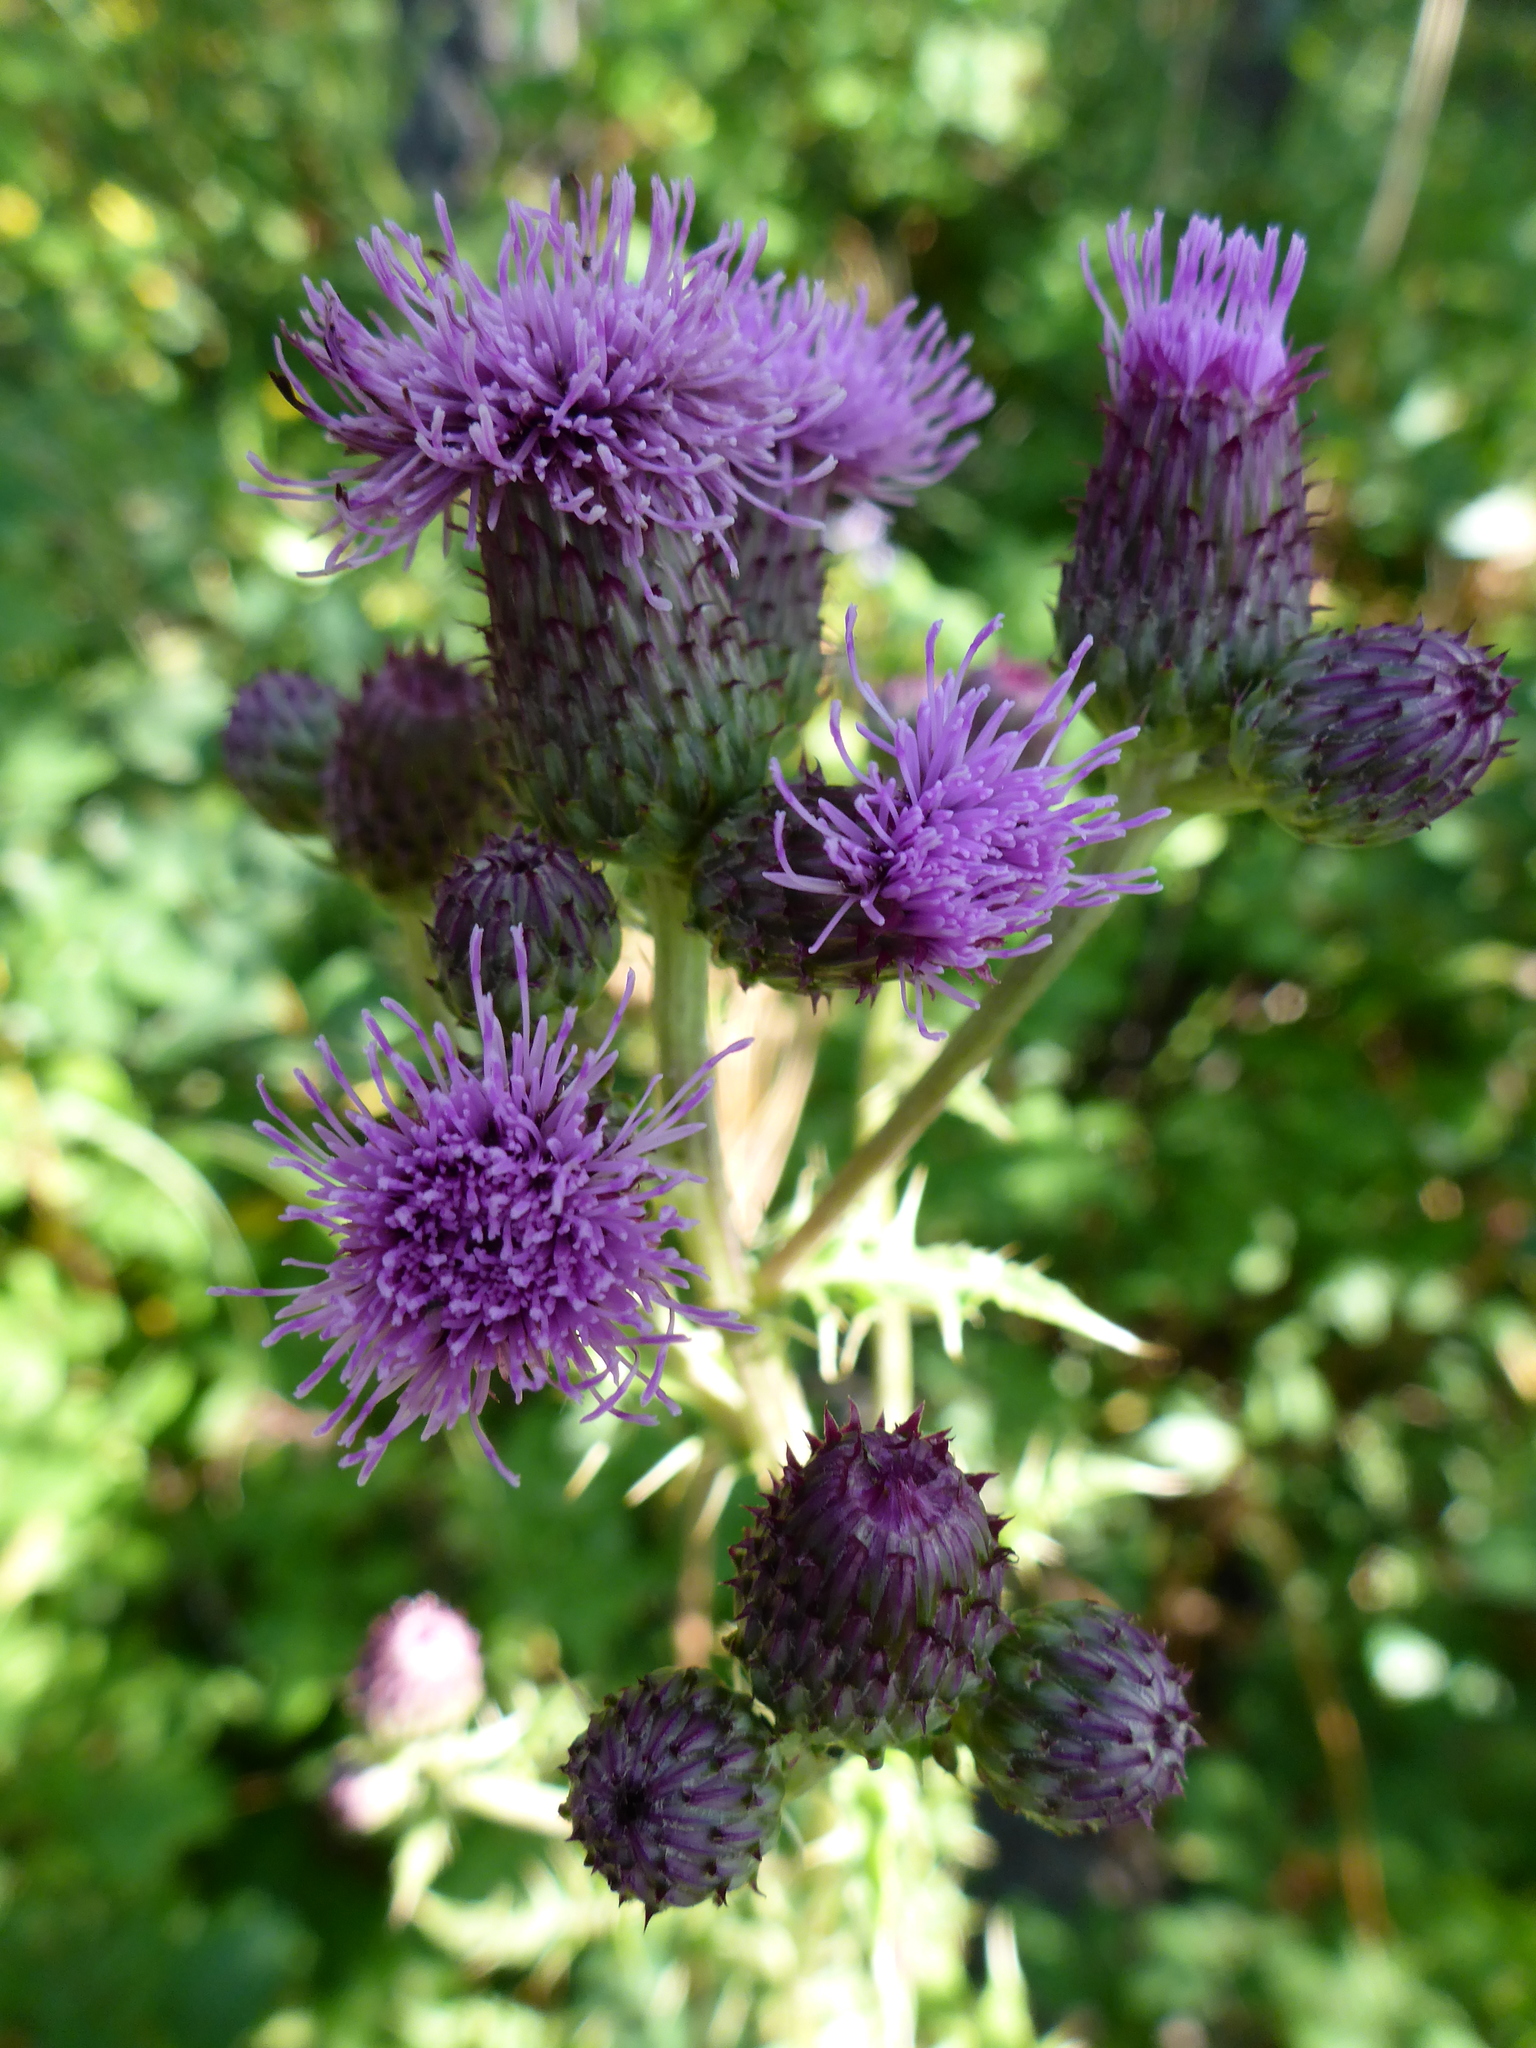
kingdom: Plantae
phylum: Tracheophyta
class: Magnoliopsida
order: Asterales
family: Asteraceae
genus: Cirsium
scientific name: Cirsium arvense
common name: Creeping thistle
